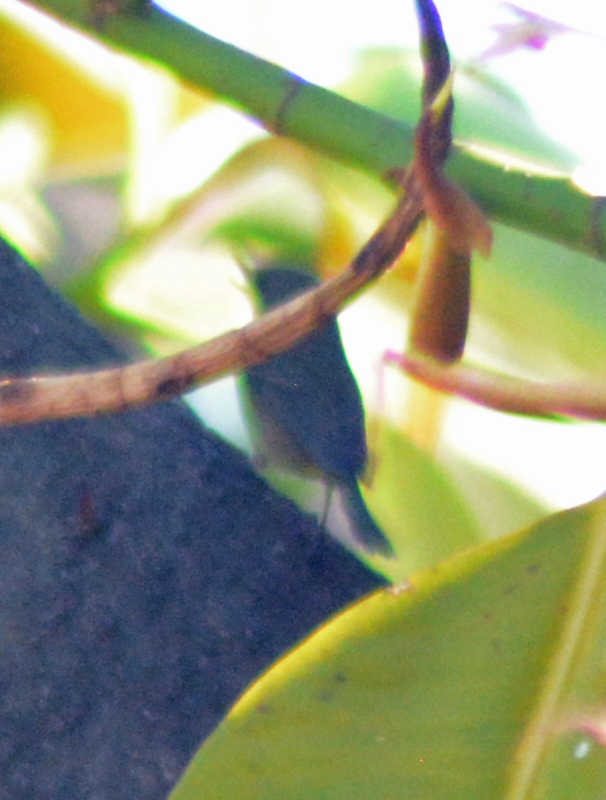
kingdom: Animalia
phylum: Chordata
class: Aves
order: Passeriformes
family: Thraupidae
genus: Diglossa
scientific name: Diglossa baritula
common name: Cinnamon-bellied flowerpiercer
